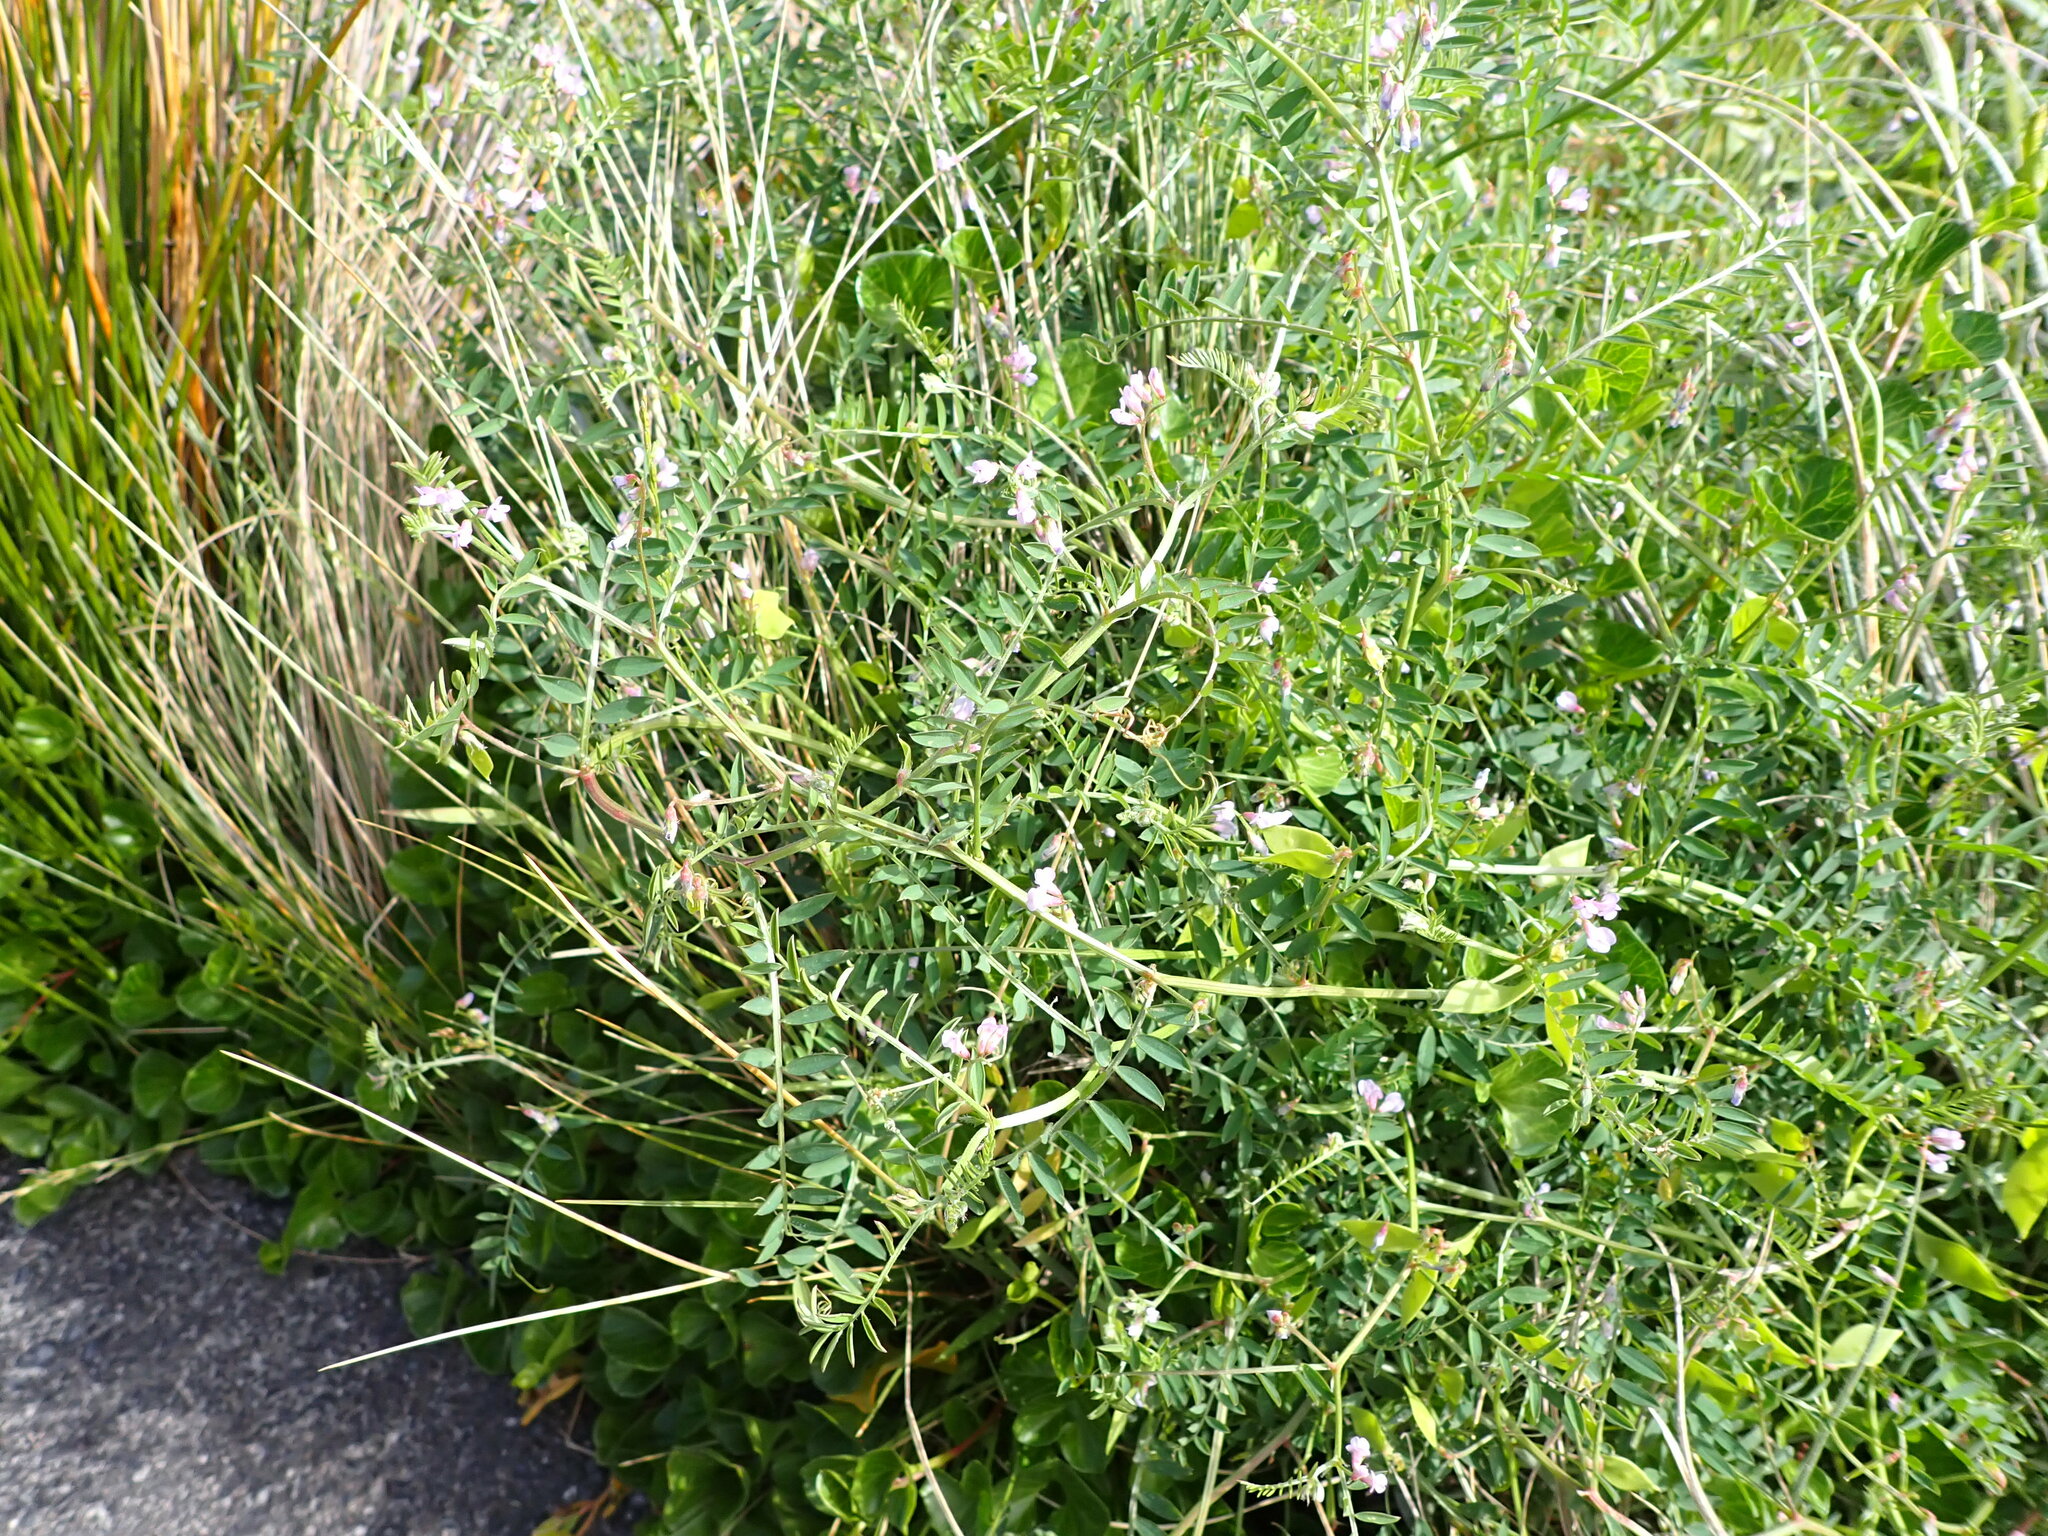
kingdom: Plantae
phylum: Tracheophyta
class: Magnoliopsida
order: Fabales
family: Fabaceae
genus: Vicia
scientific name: Vicia disperma
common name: European vetch
